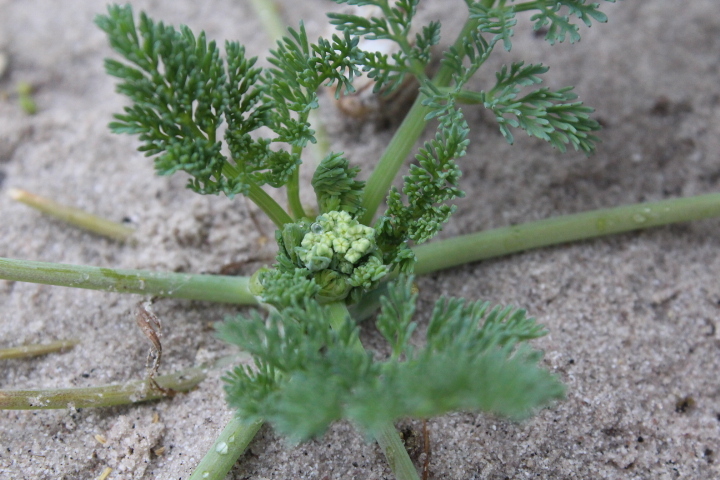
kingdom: Plantae
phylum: Tracheophyta
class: Magnoliopsida
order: Geraniales
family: Geraniaceae
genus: Pelargonium
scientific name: Pelargonium triste
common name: Night-scent pelargonium
